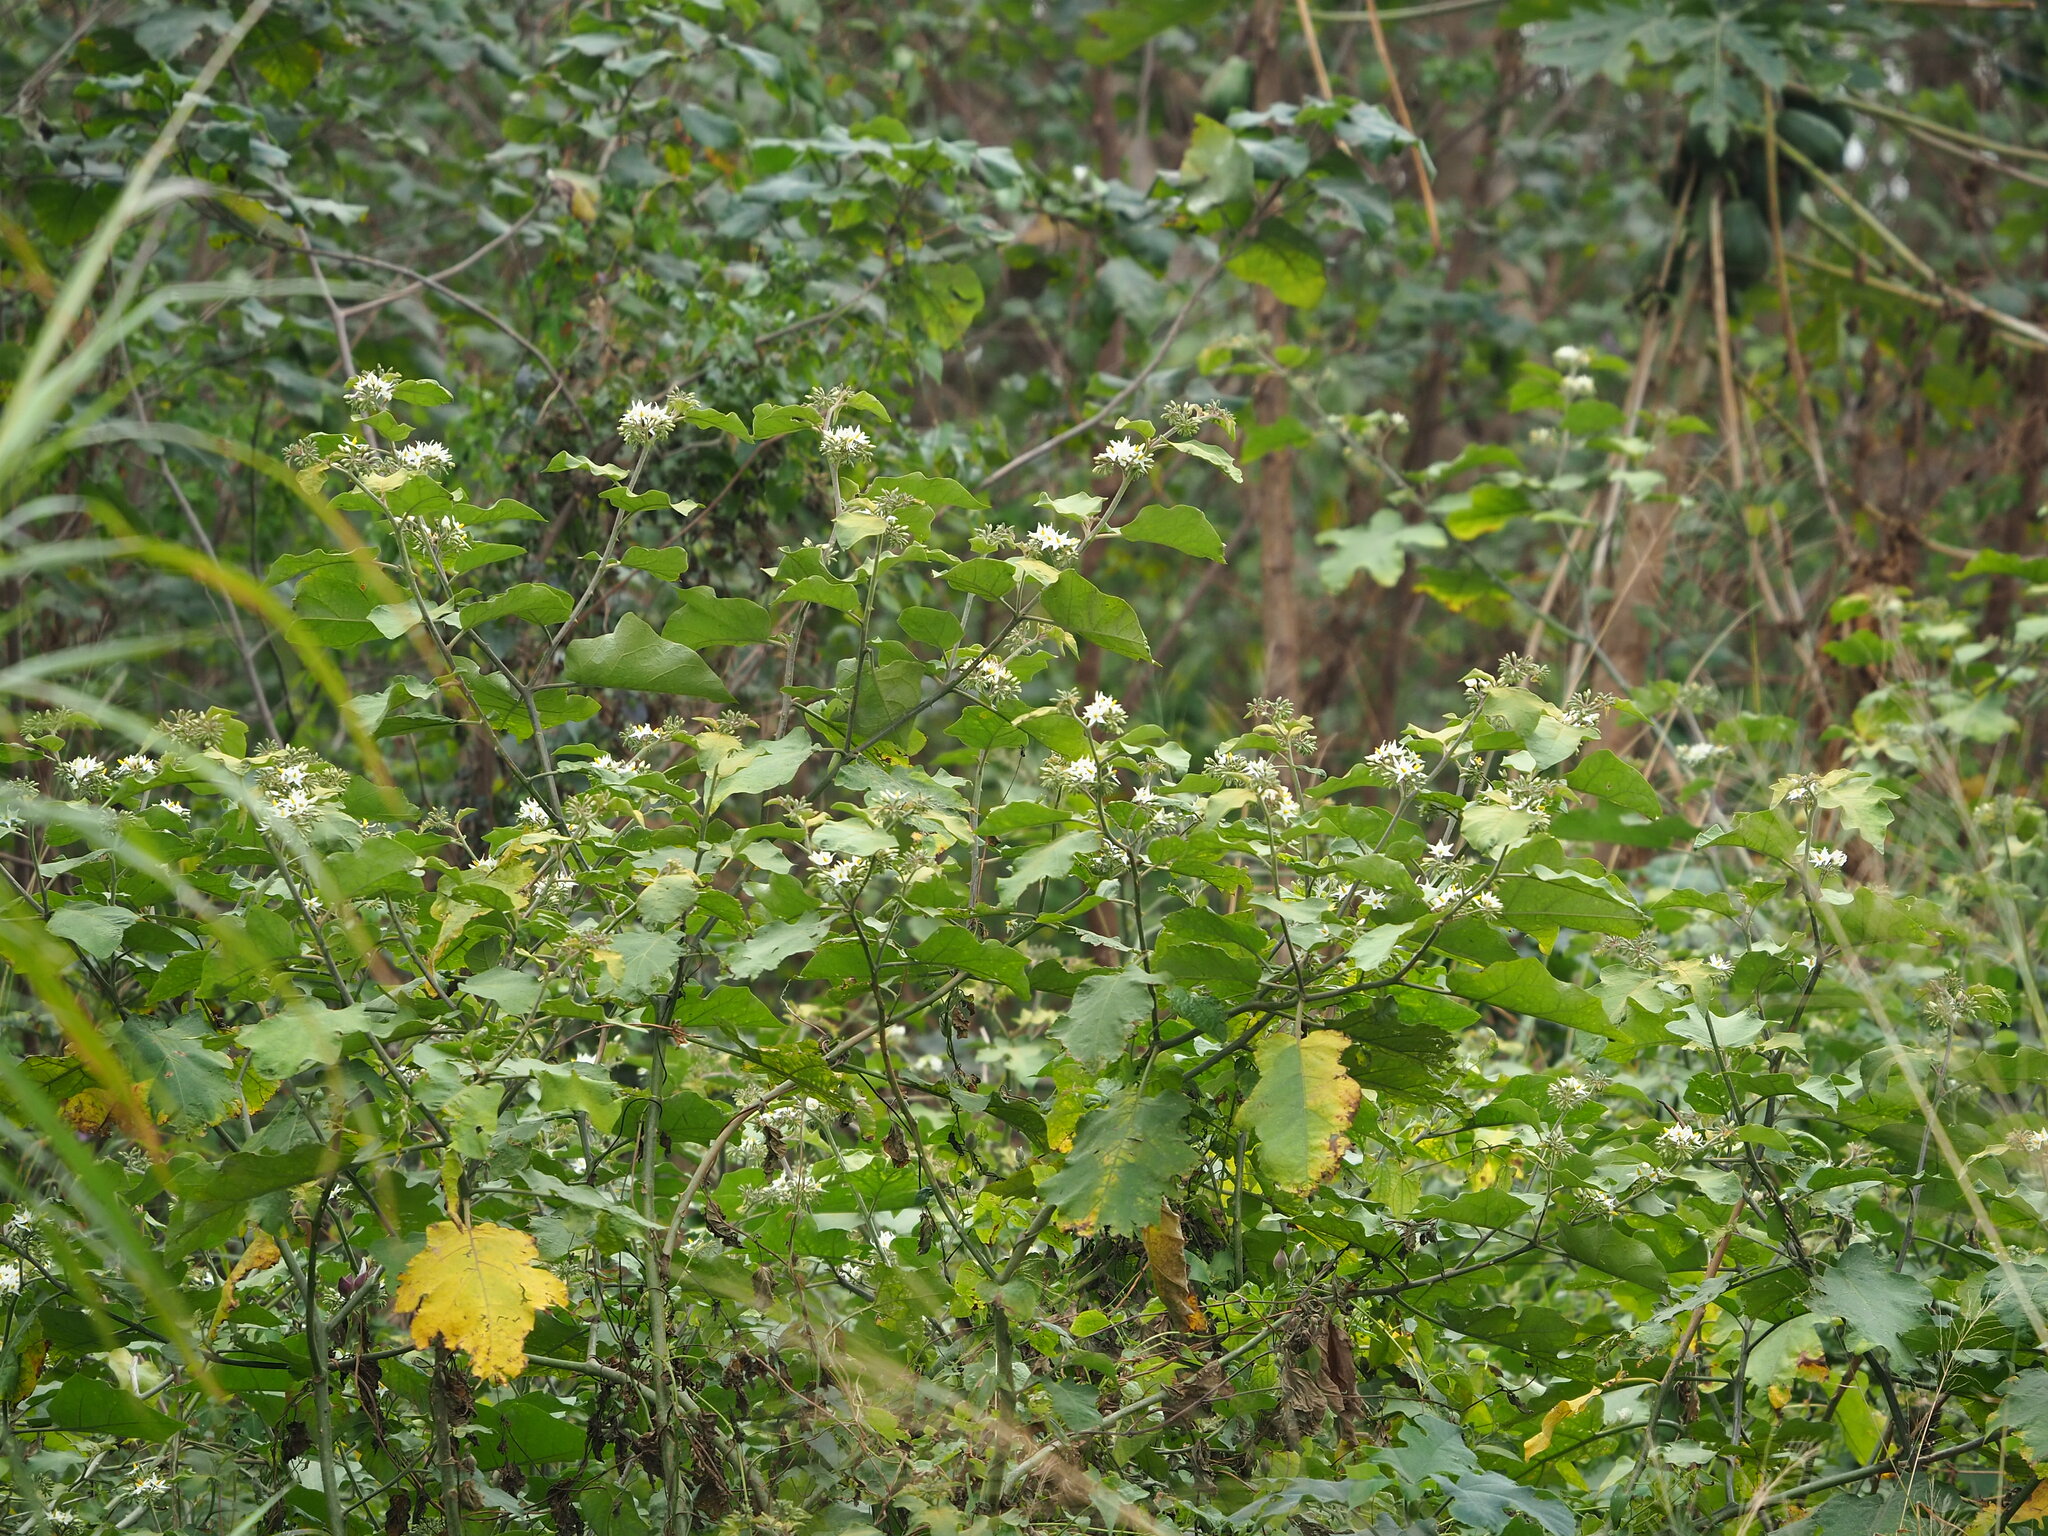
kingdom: Plantae
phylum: Tracheophyta
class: Magnoliopsida
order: Solanales
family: Solanaceae
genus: Solanum
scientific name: Solanum torvum
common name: Turkey berry
